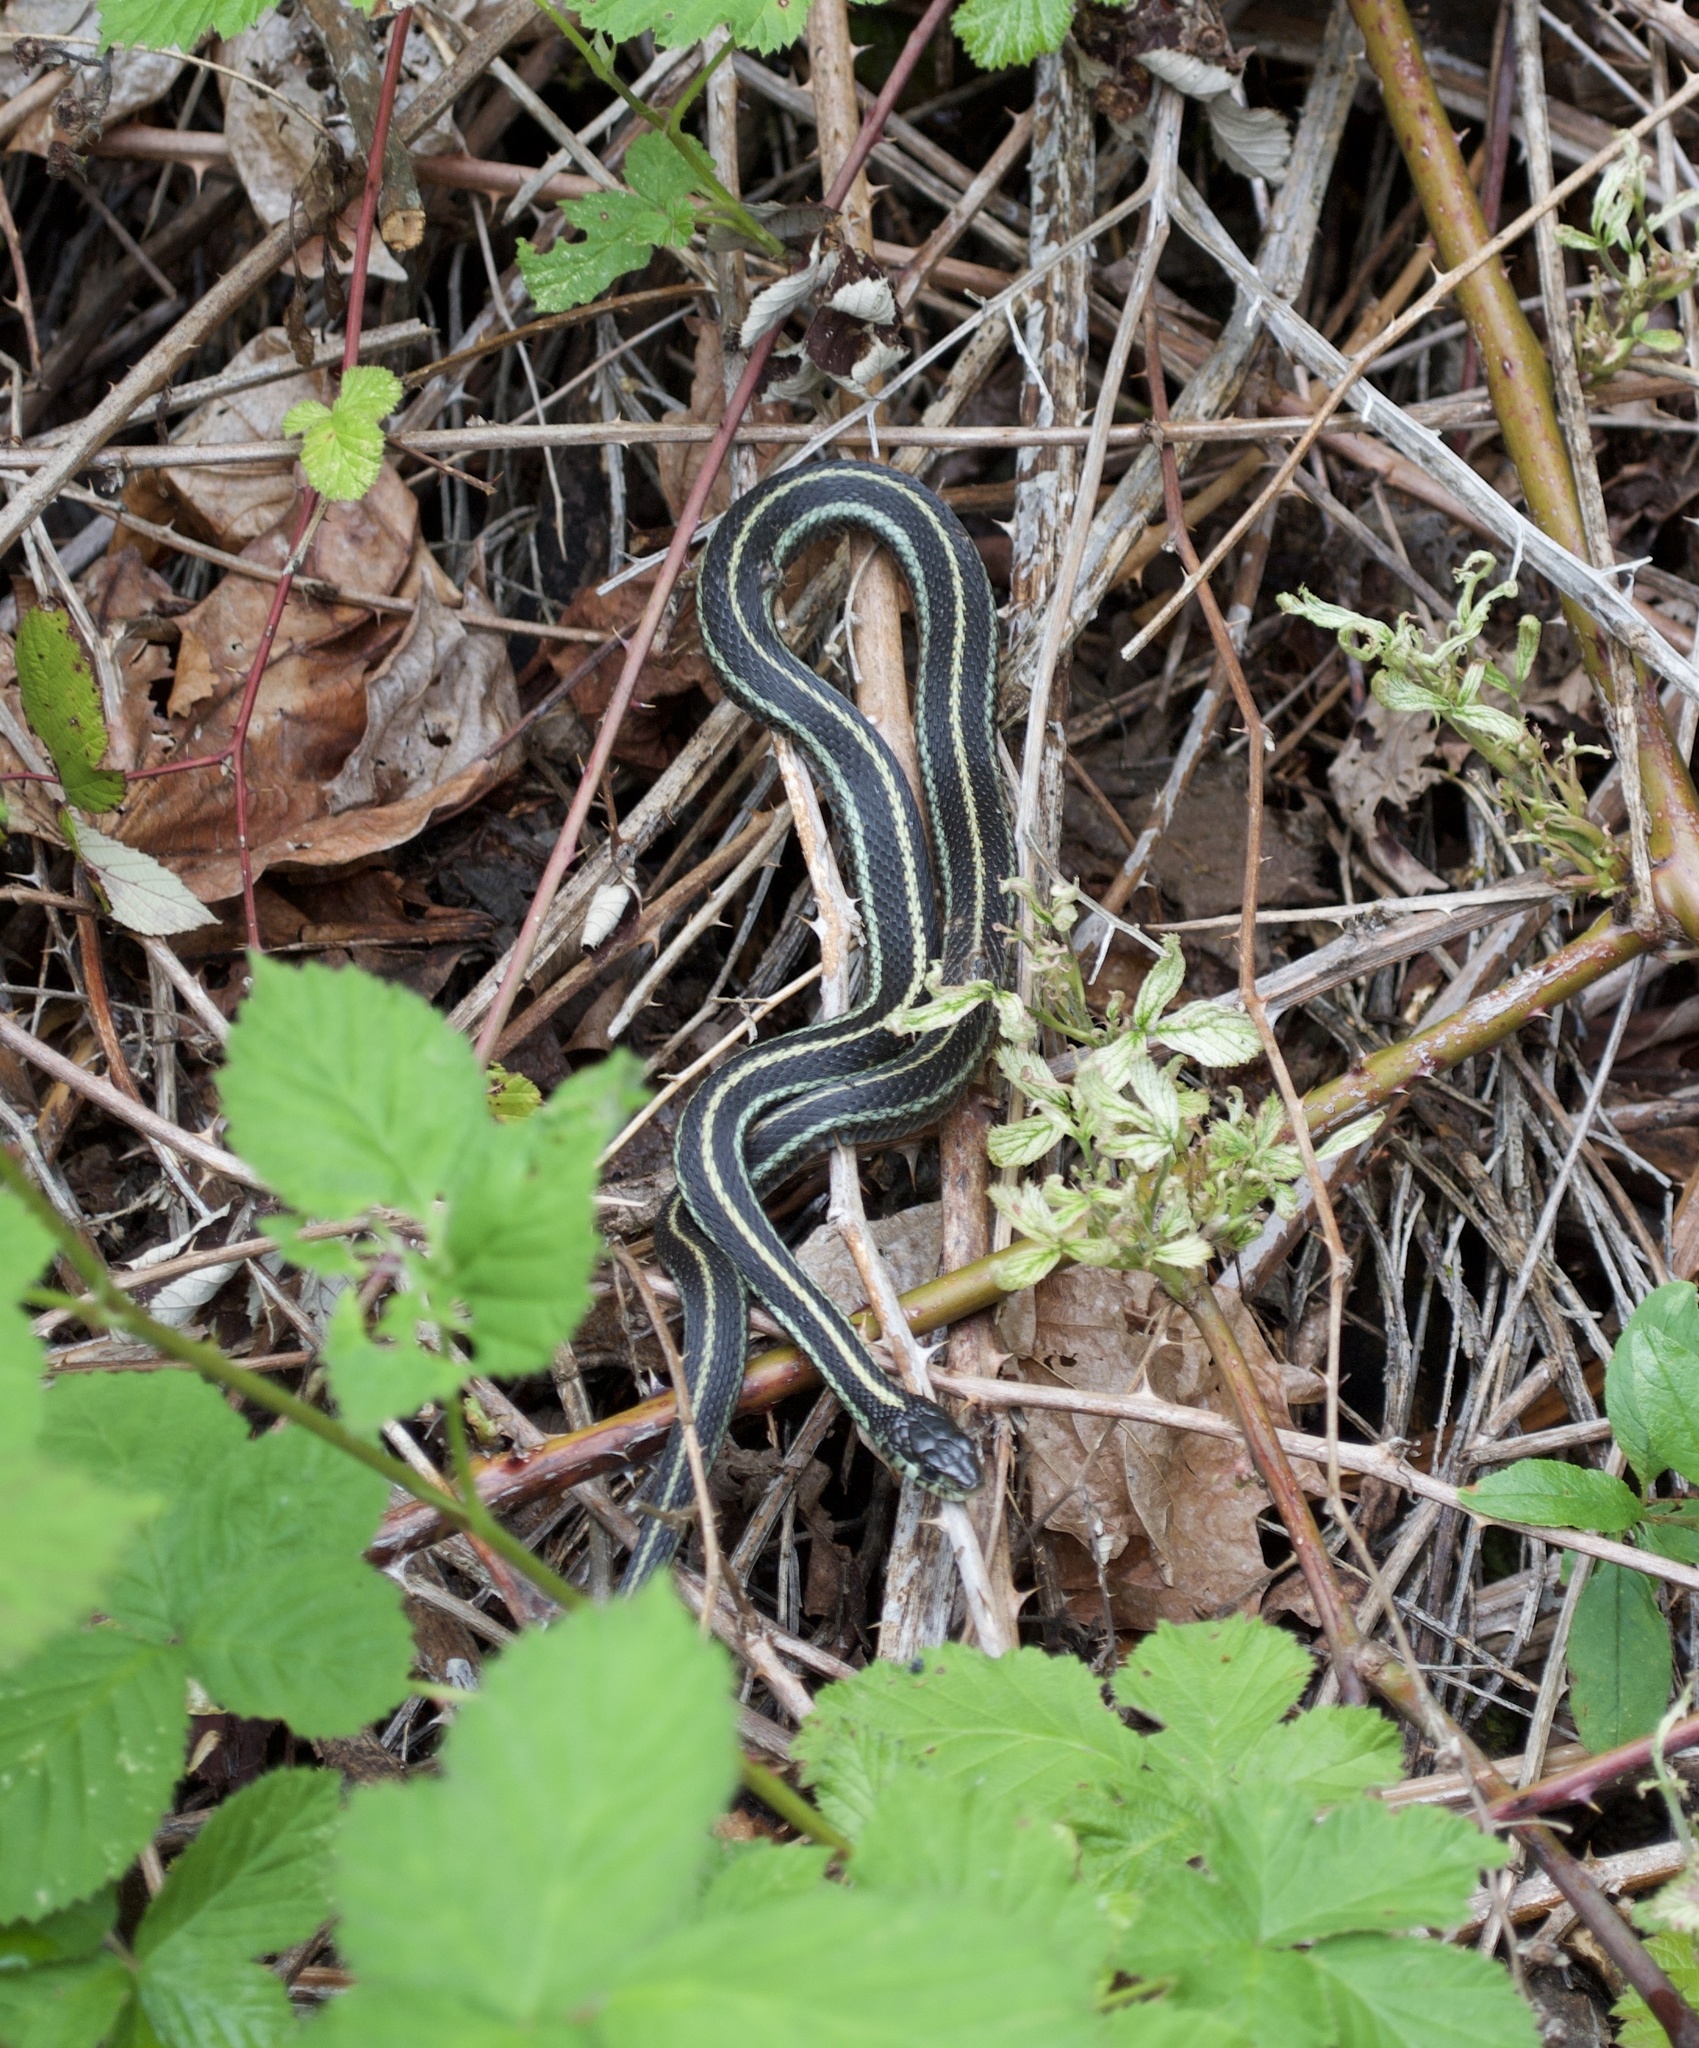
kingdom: Animalia
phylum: Chordata
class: Squamata
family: Colubridae
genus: Thamnophis
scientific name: Thamnophis sirtalis
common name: Common garter snake
